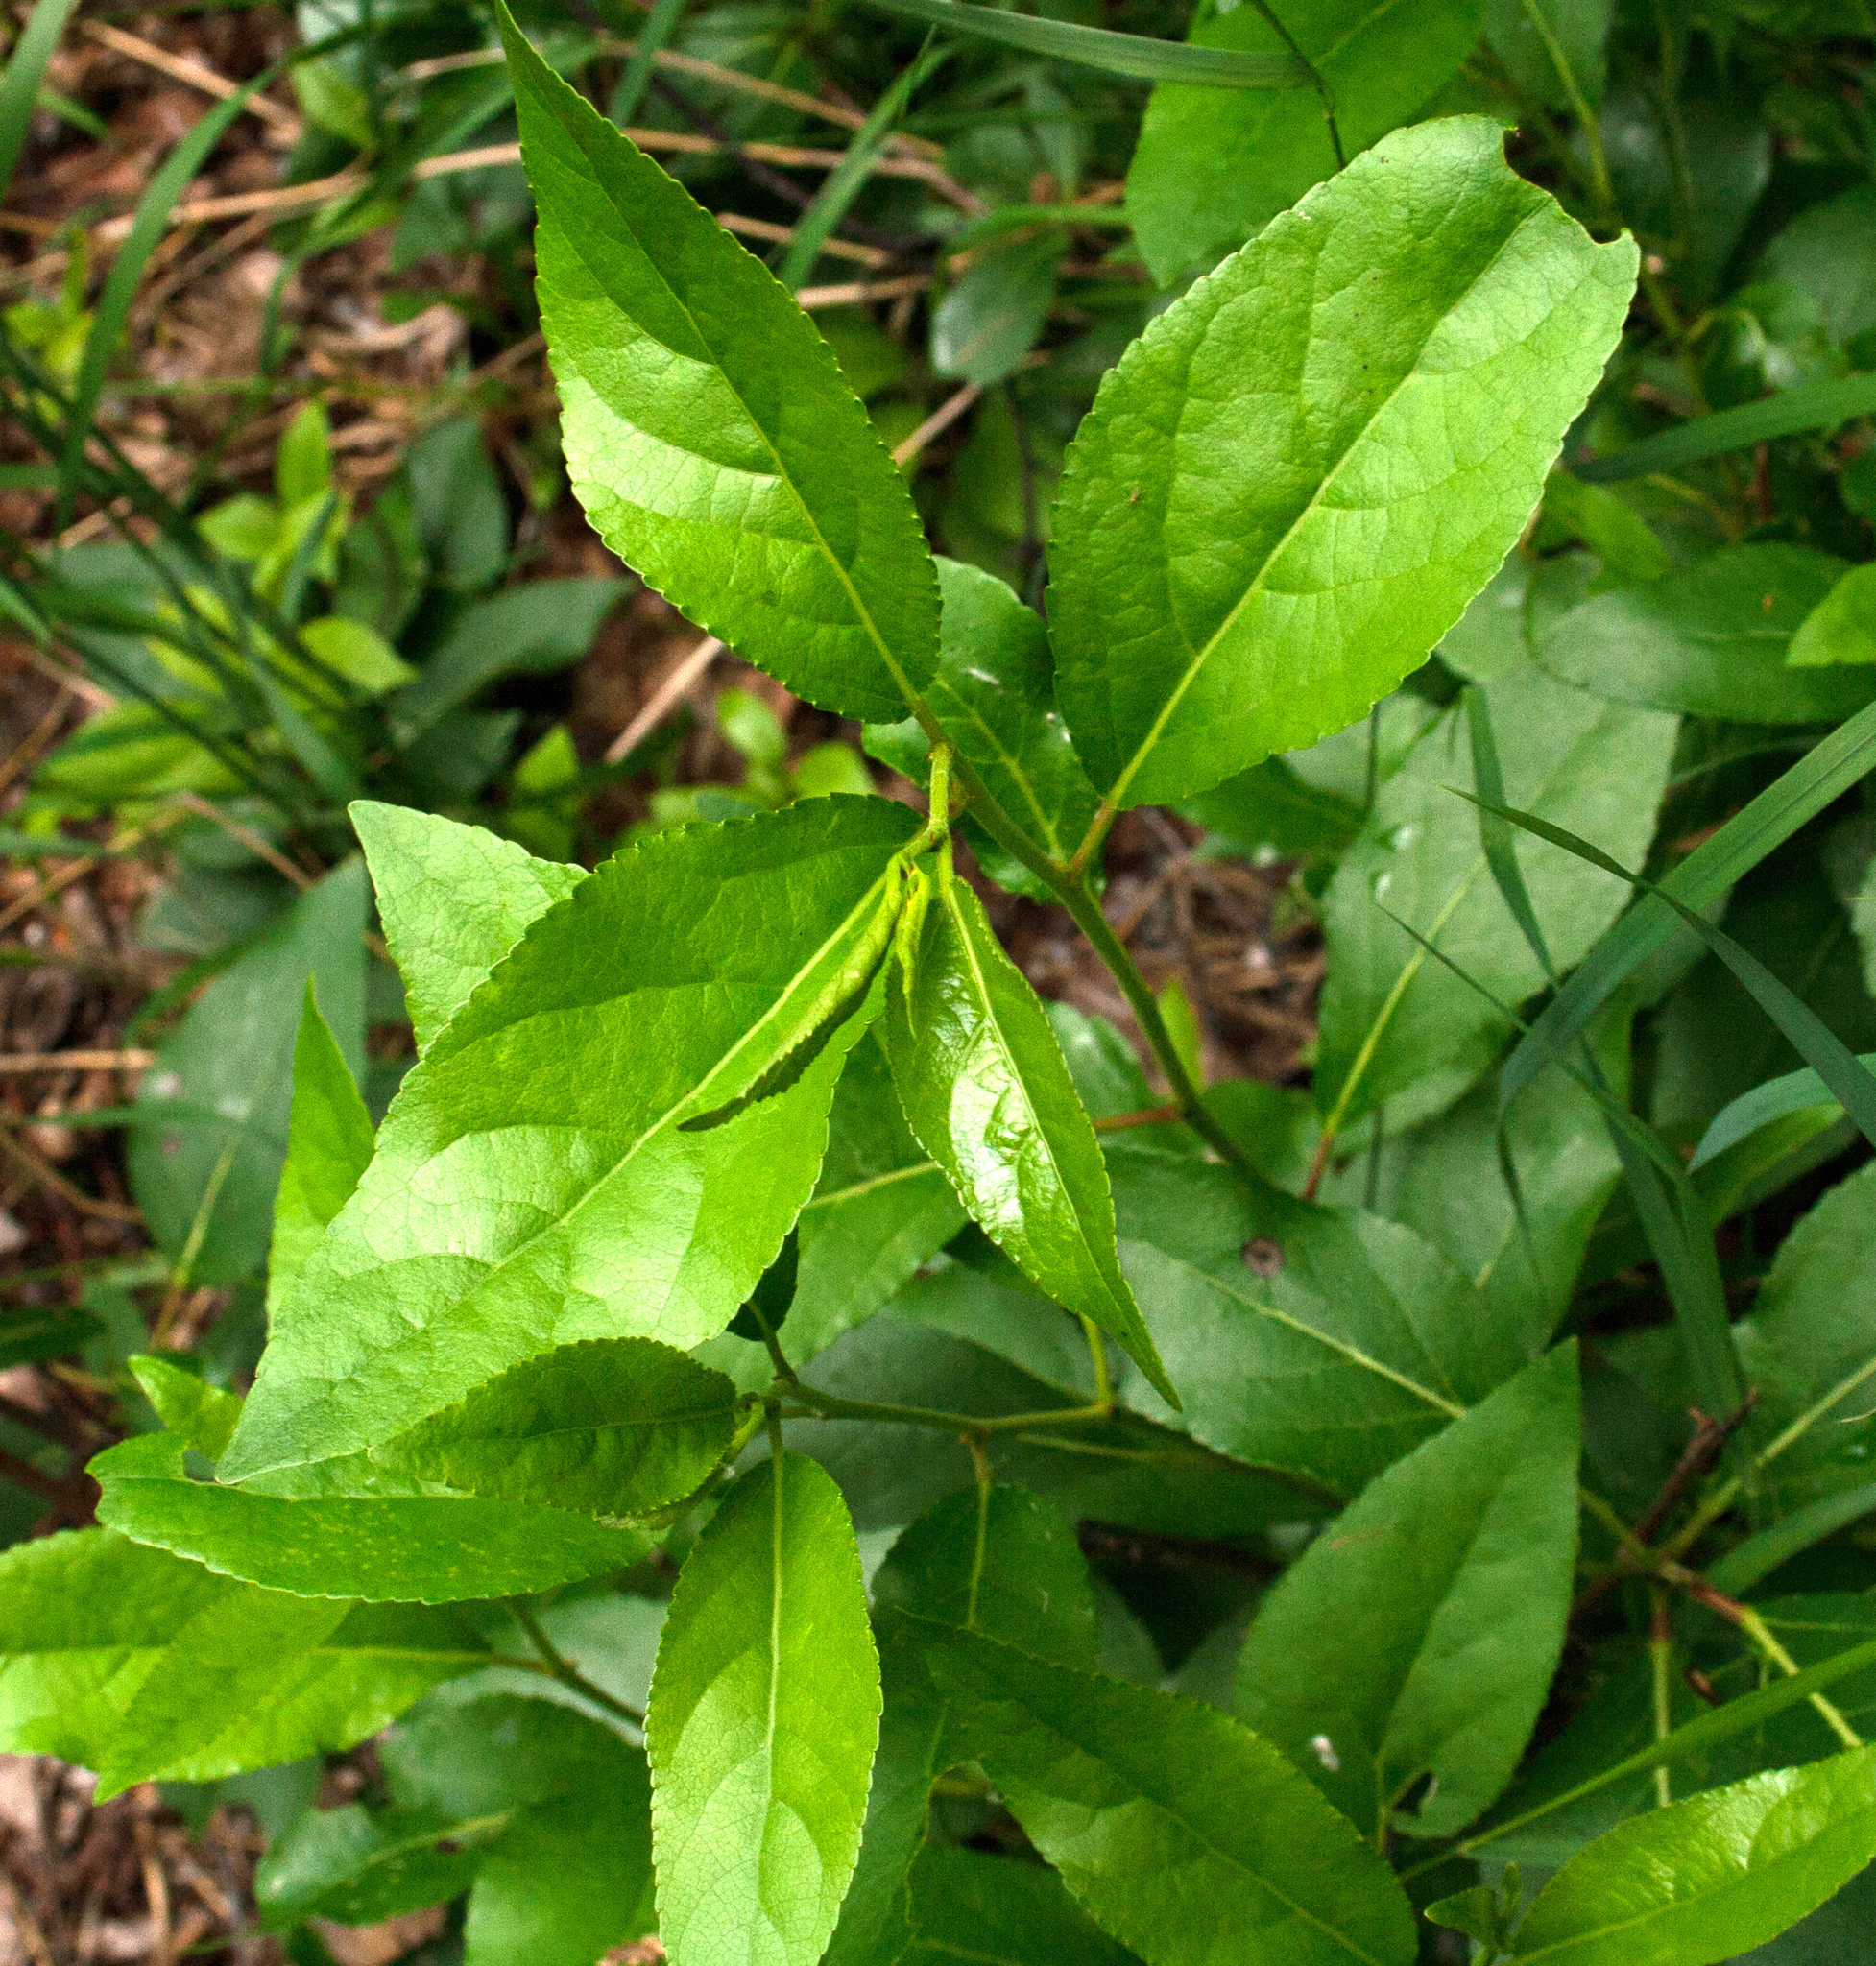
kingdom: Plantae
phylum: Tracheophyta
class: Magnoliopsida
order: Rosales
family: Rosaceae
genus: Prunus
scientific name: Prunus padus
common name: Bird cherry
